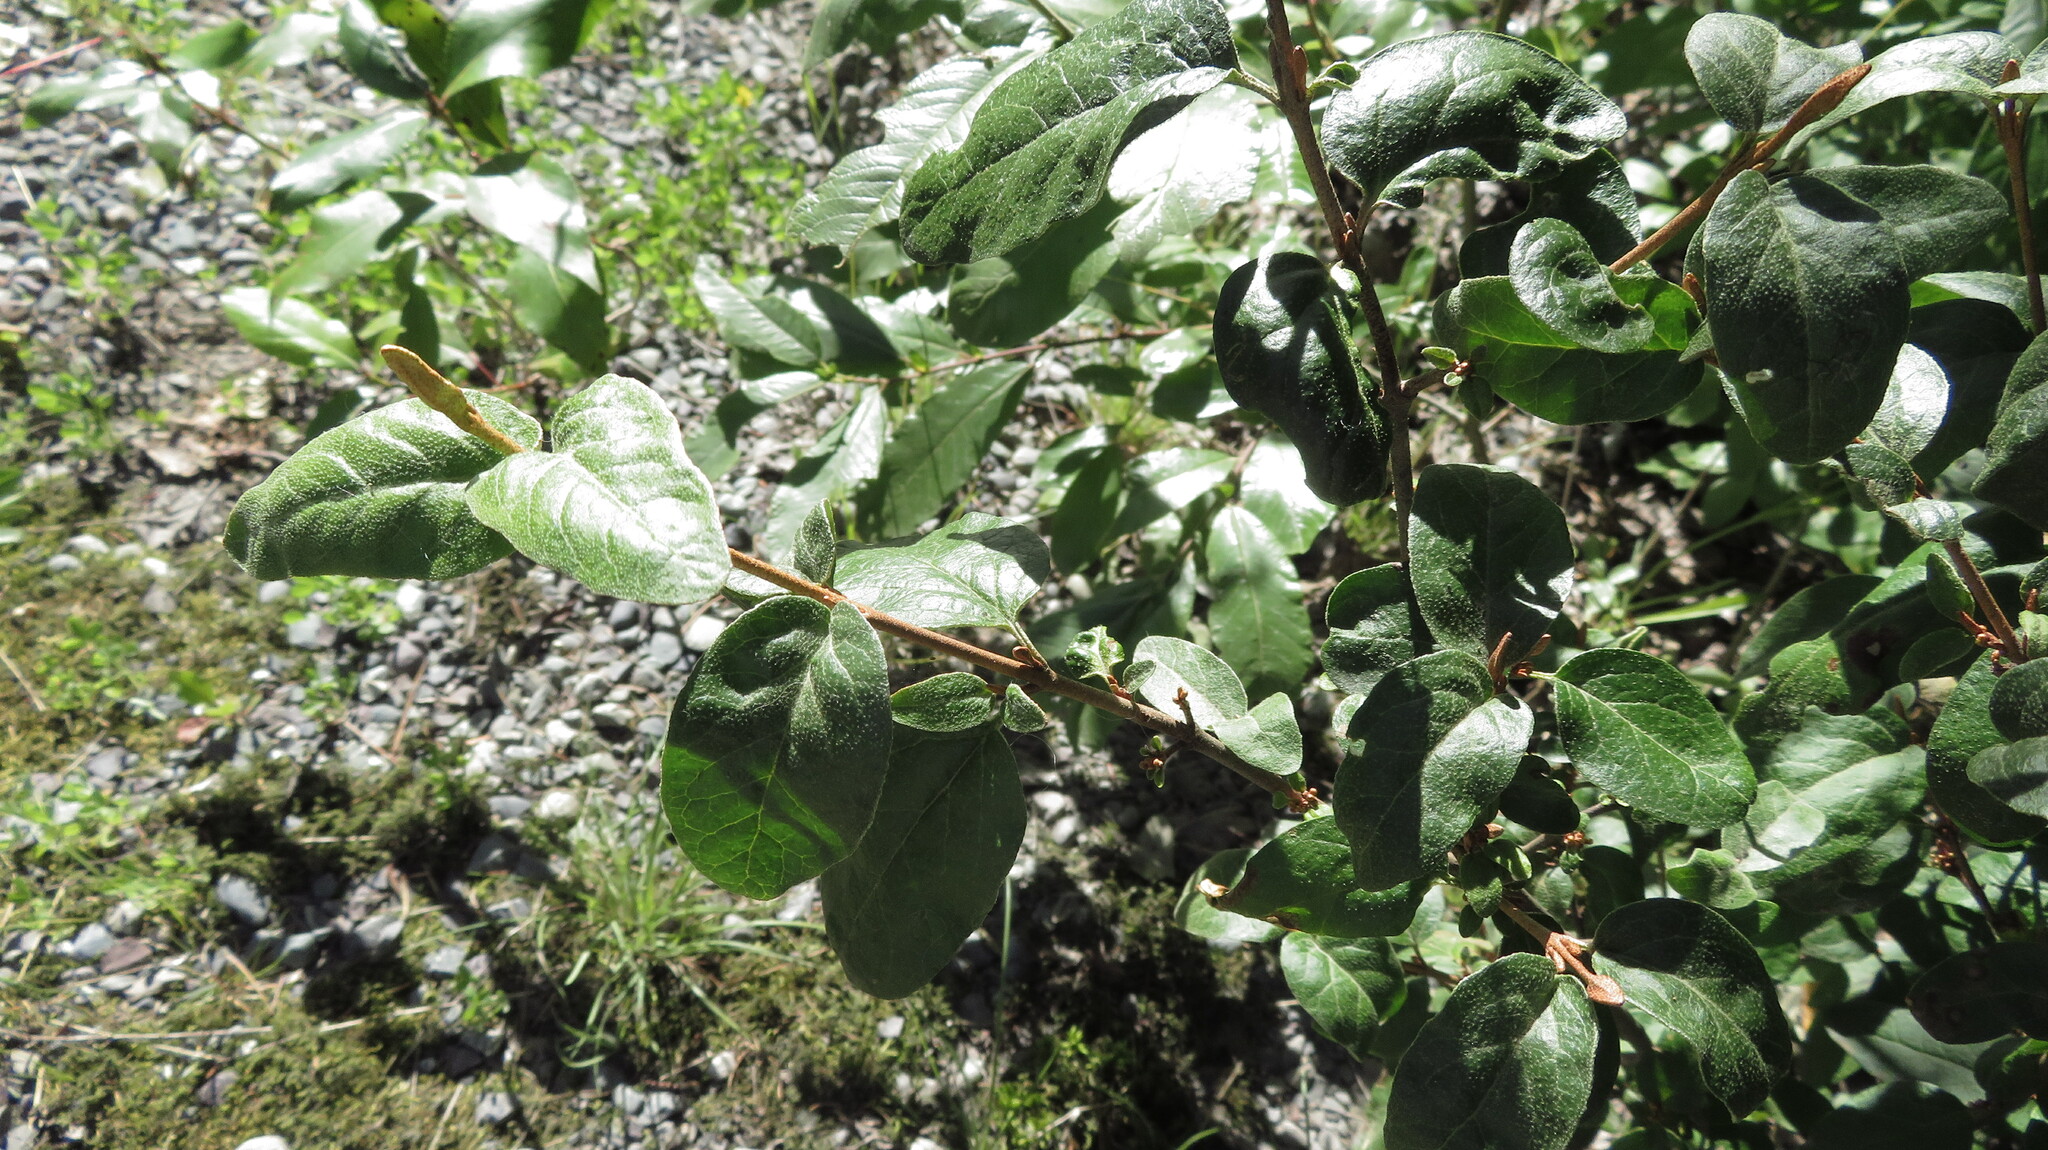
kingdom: Plantae
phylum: Tracheophyta
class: Magnoliopsida
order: Rosales
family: Elaeagnaceae
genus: Shepherdia
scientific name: Shepherdia canadensis
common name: Soapberry
